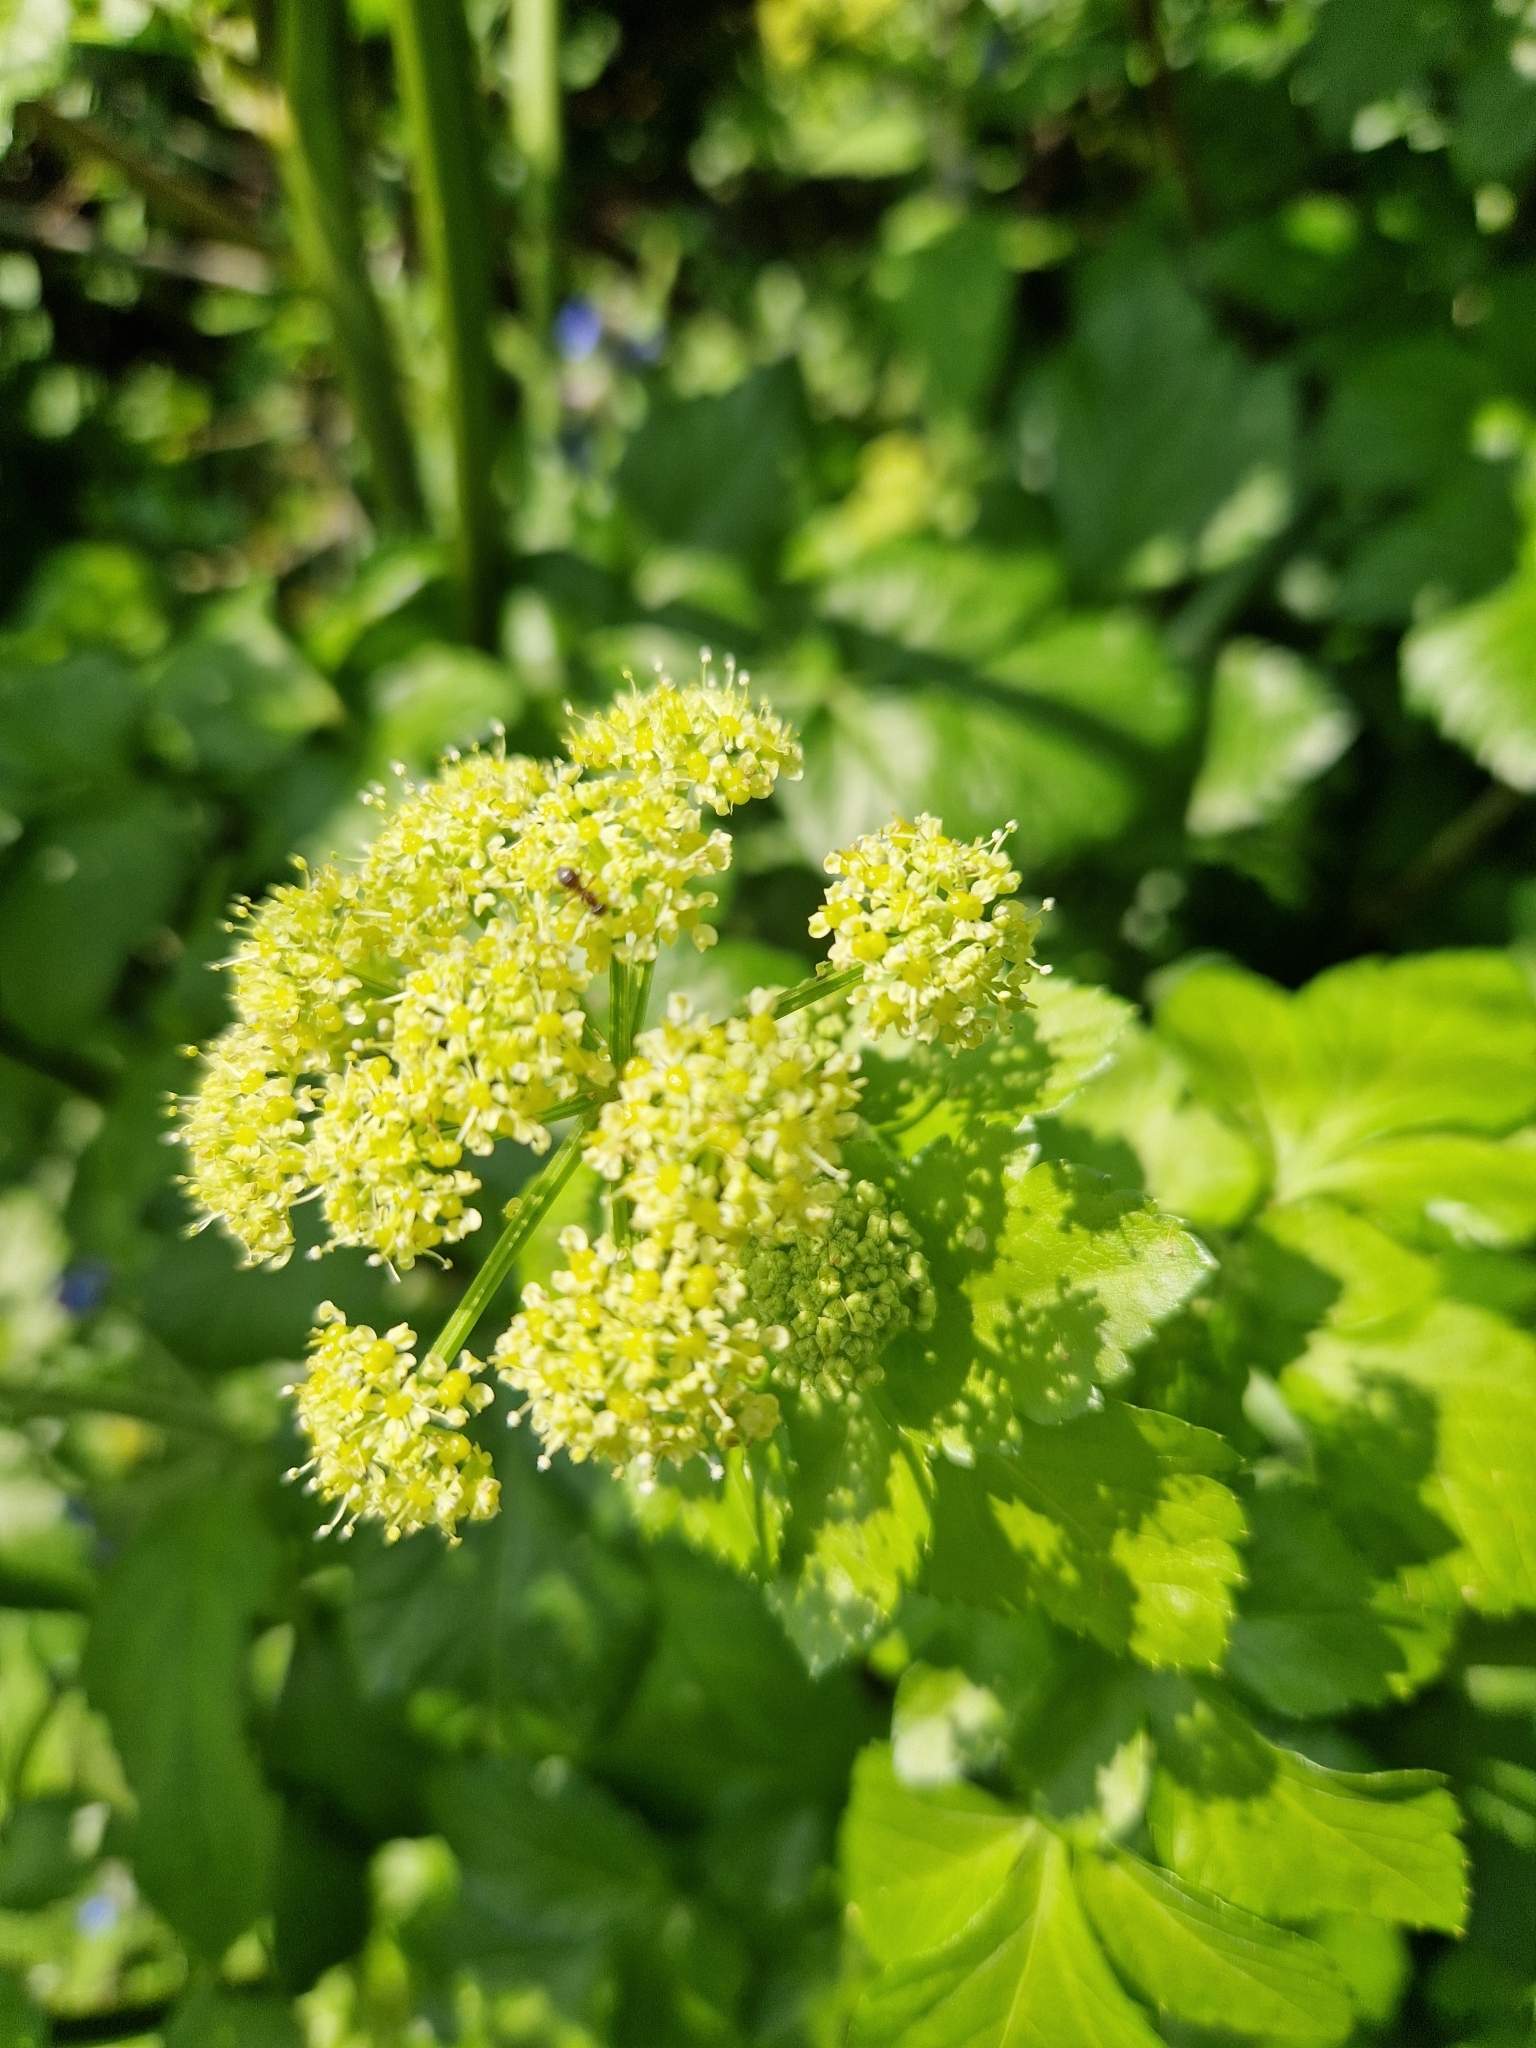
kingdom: Plantae
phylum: Tracheophyta
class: Magnoliopsida
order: Apiales
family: Apiaceae
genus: Smyrnium
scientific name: Smyrnium olusatrum
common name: Alexanders
